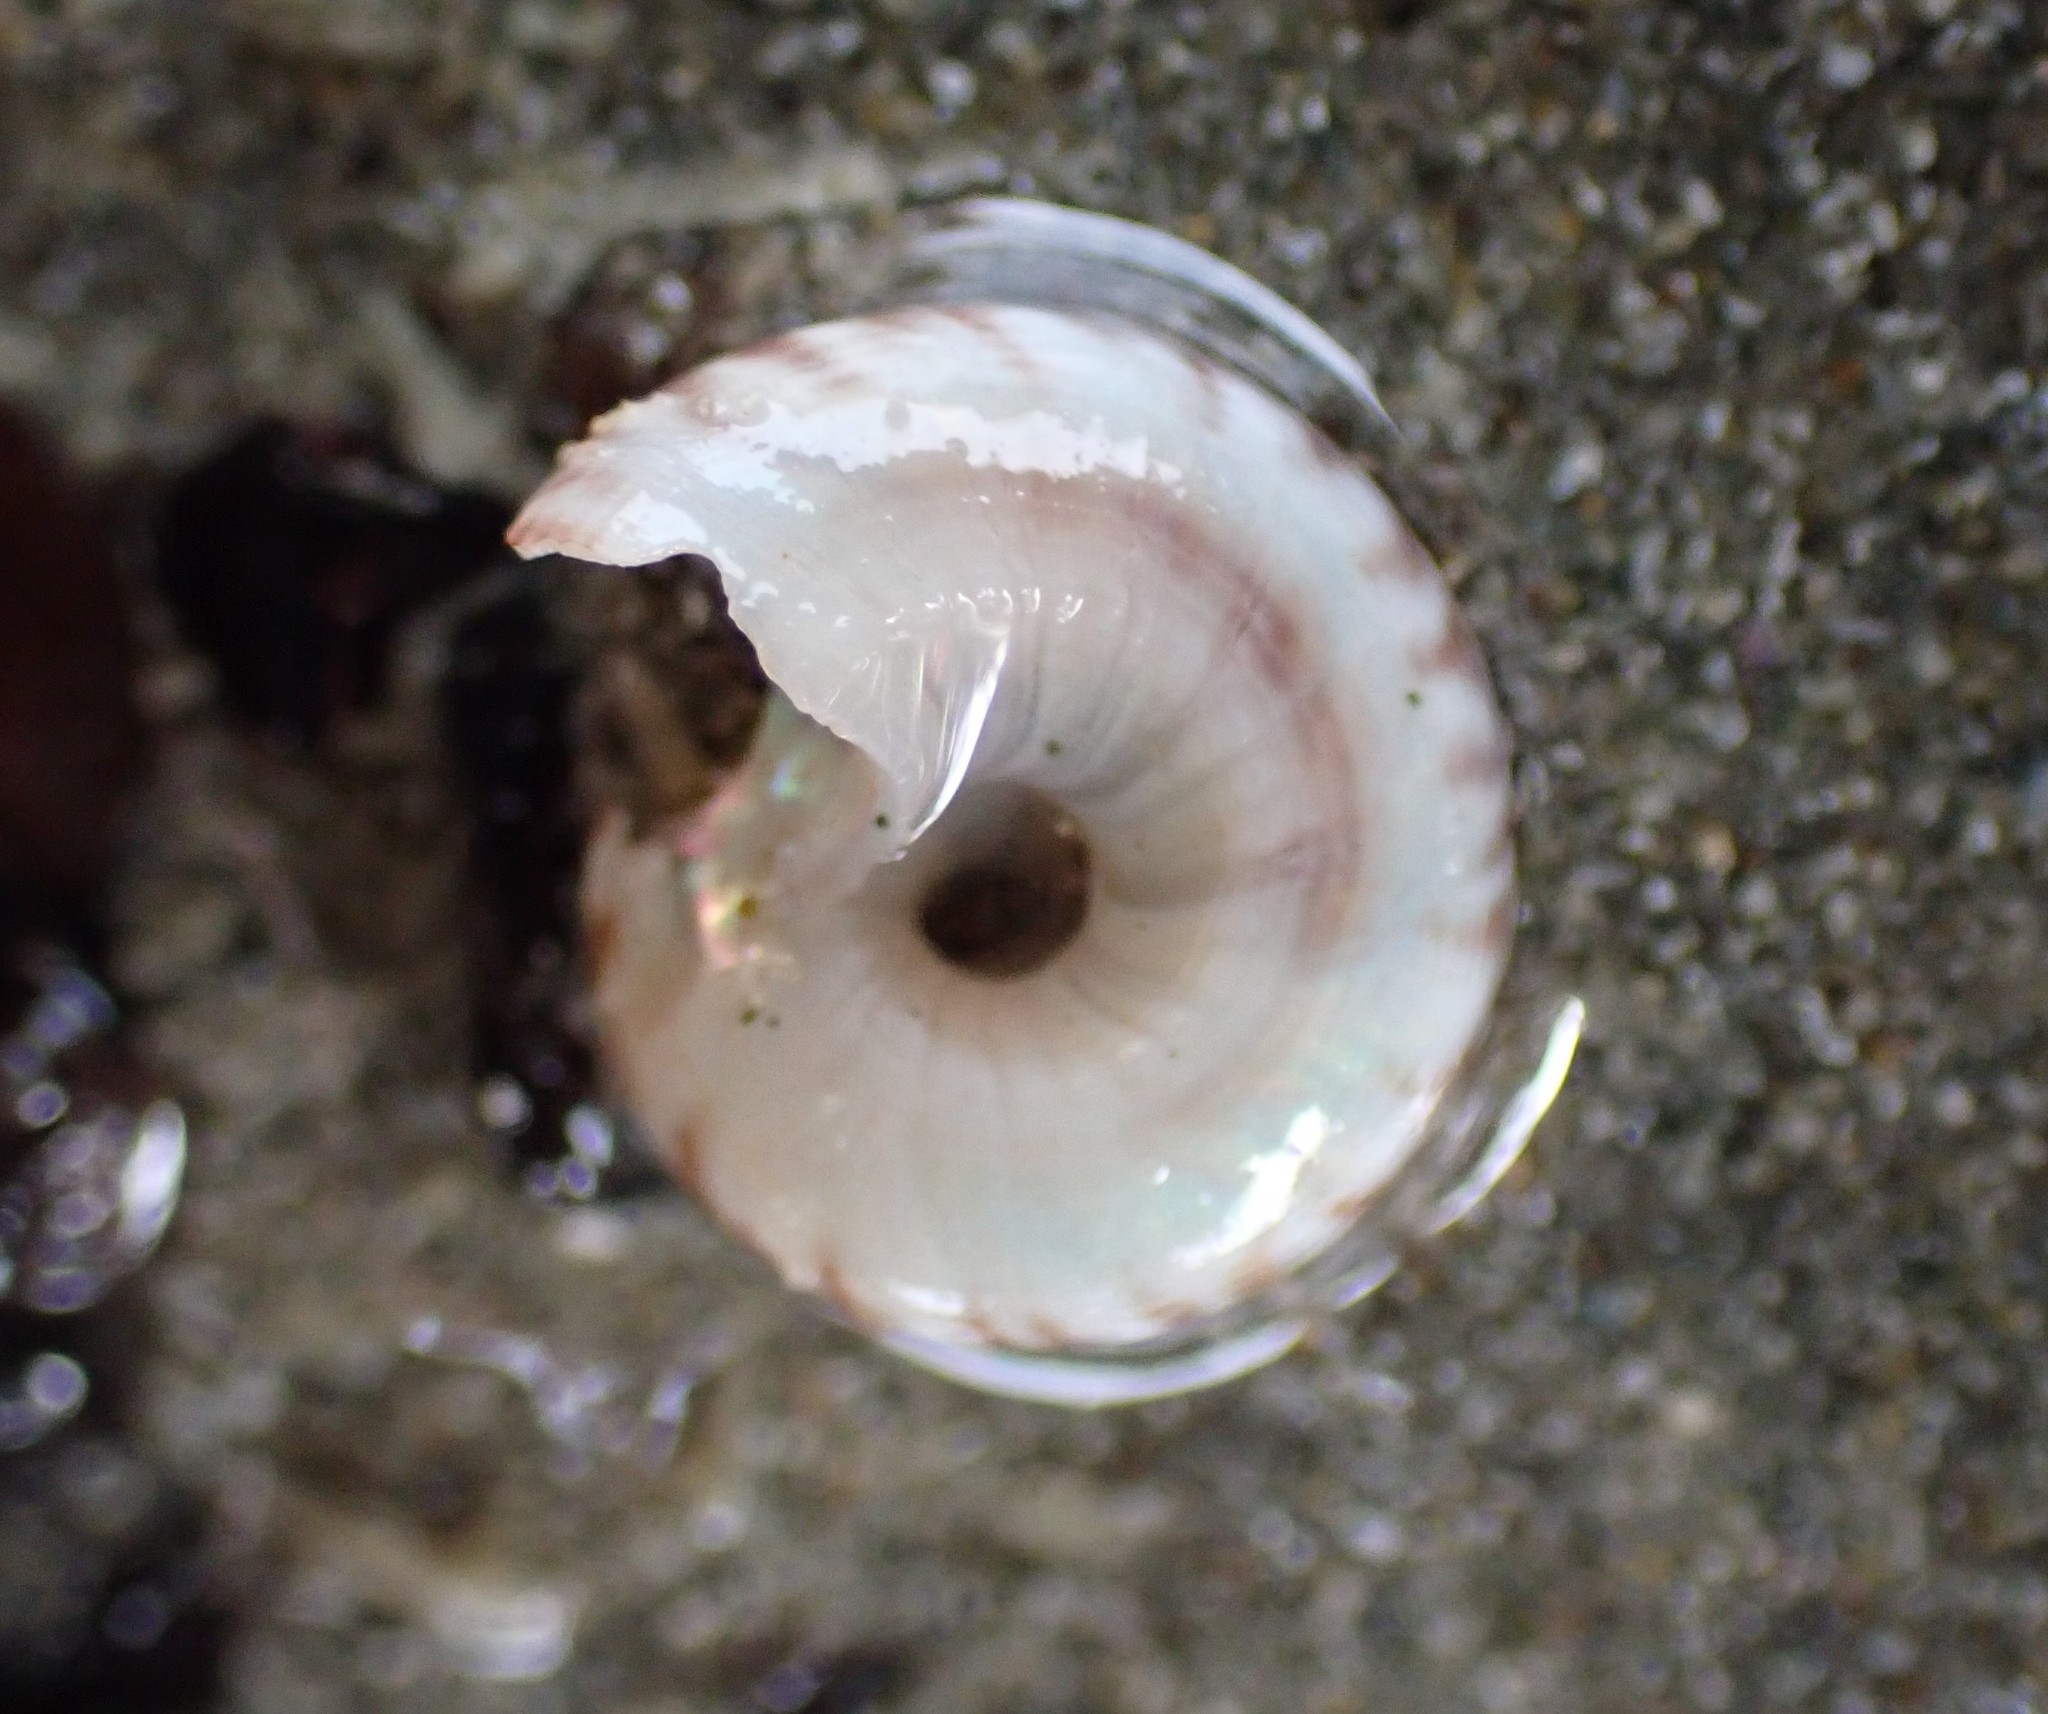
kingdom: Animalia
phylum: Mollusca
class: Gastropoda
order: Trochida
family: Trochidae
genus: Antisolarium
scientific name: Antisolarium egenum
